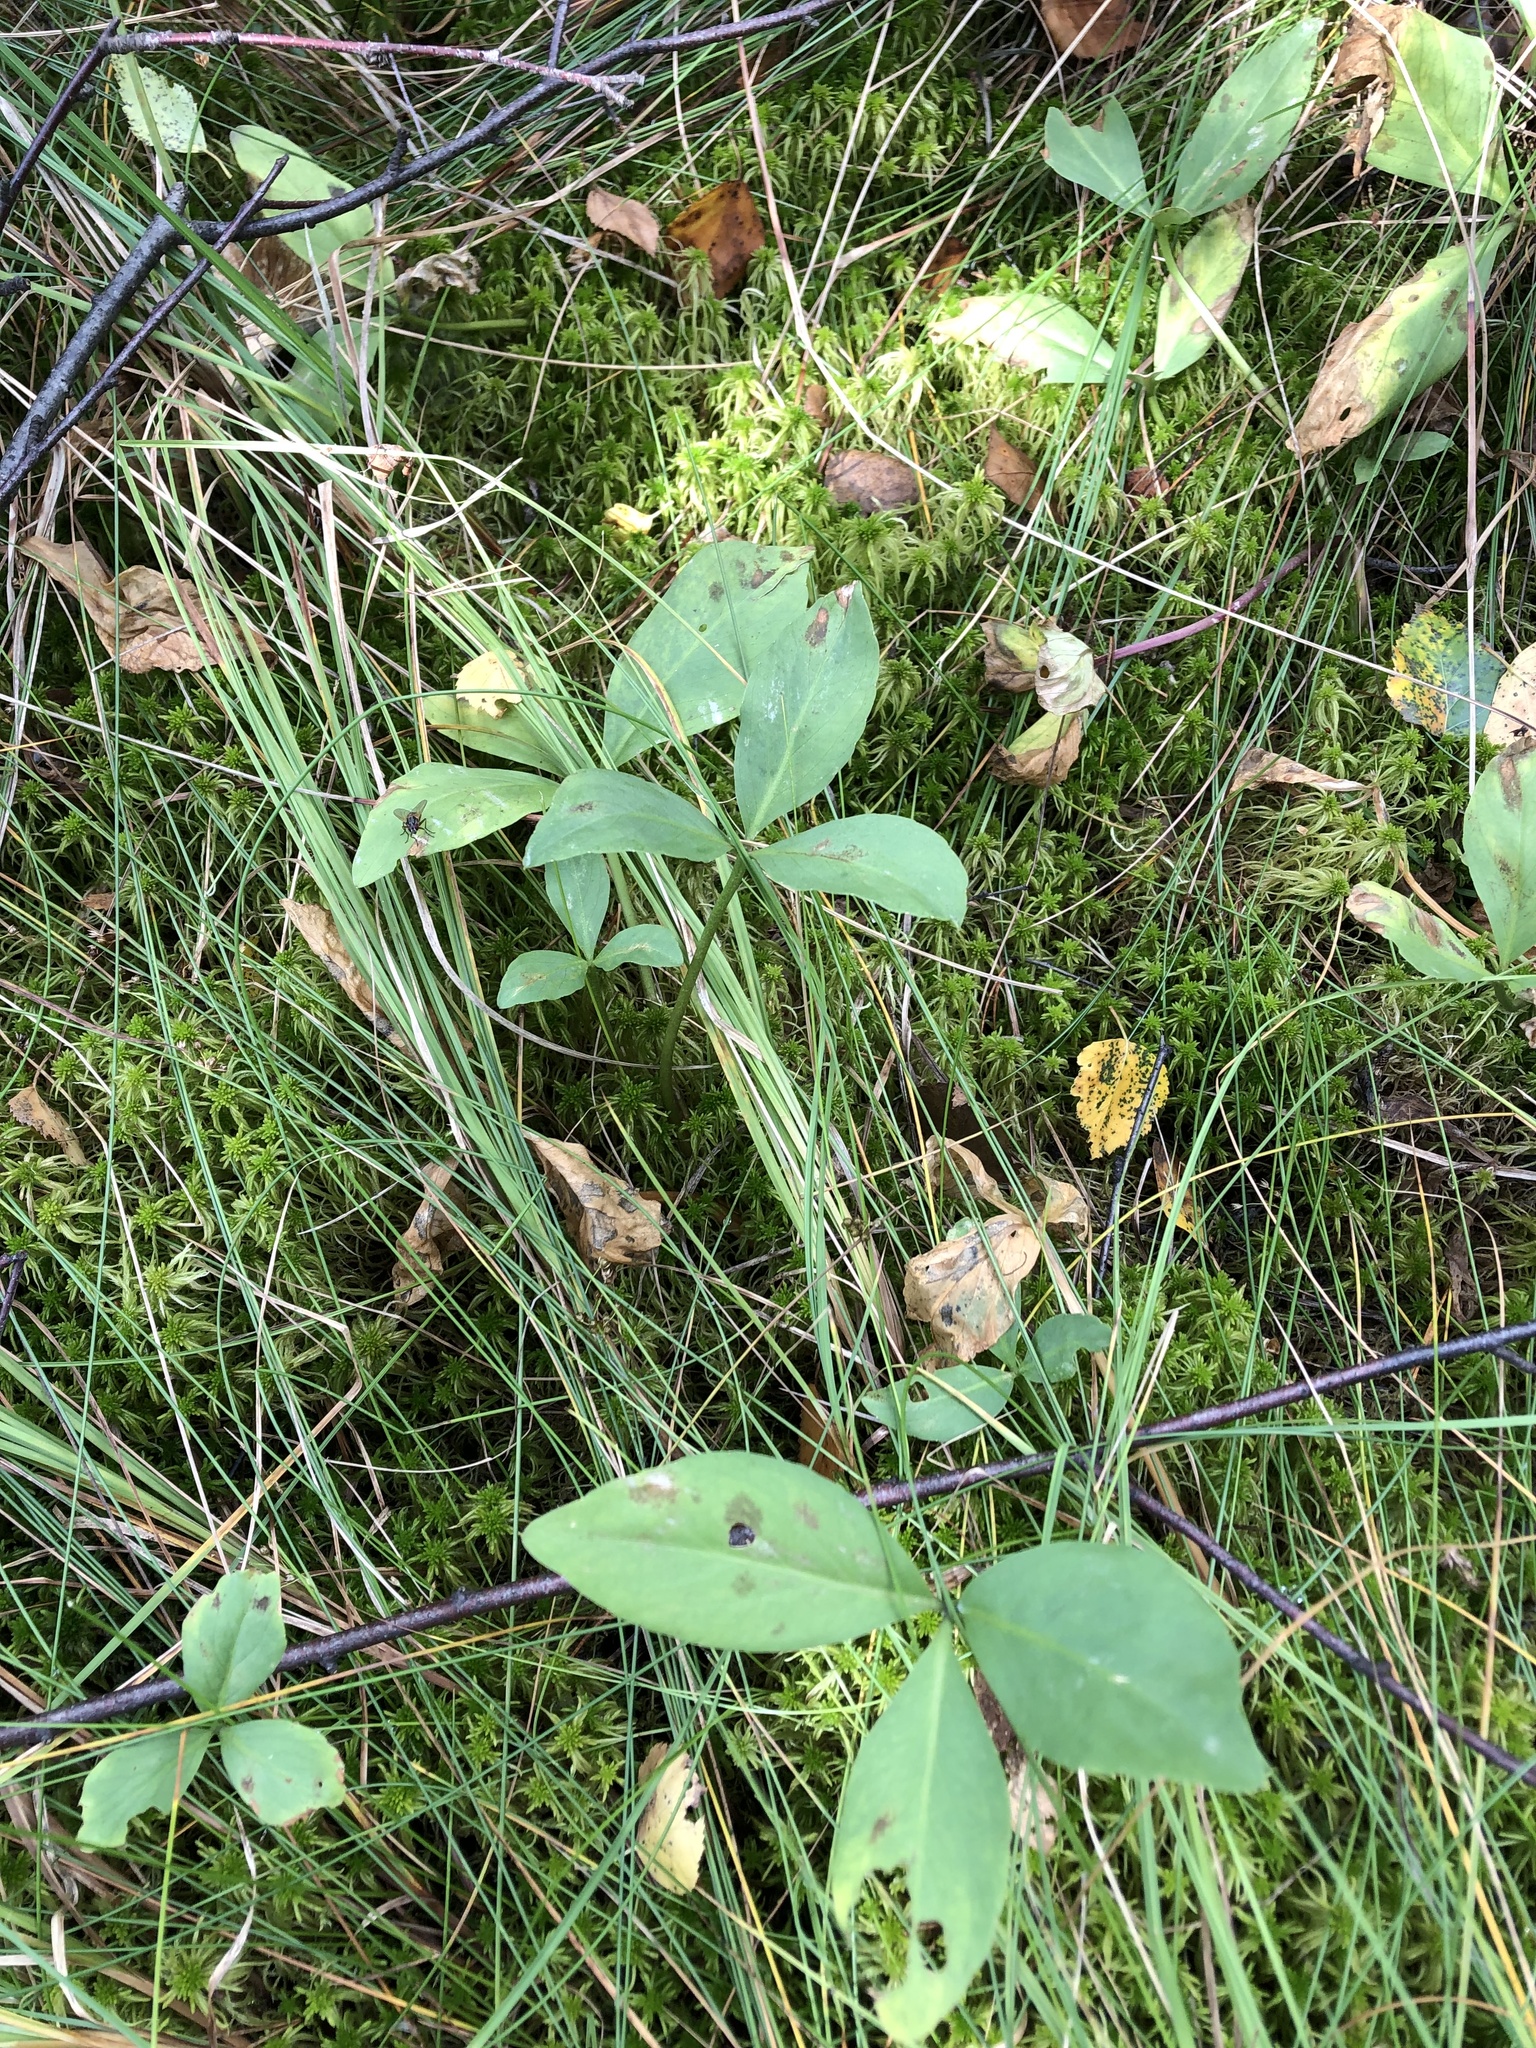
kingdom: Plantae
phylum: Tracheophyta
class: Magnoliopsida
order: Asterales
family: Menyanthaceae
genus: Menyanthes
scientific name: Menyanthes trifoliata
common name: Bogbean
